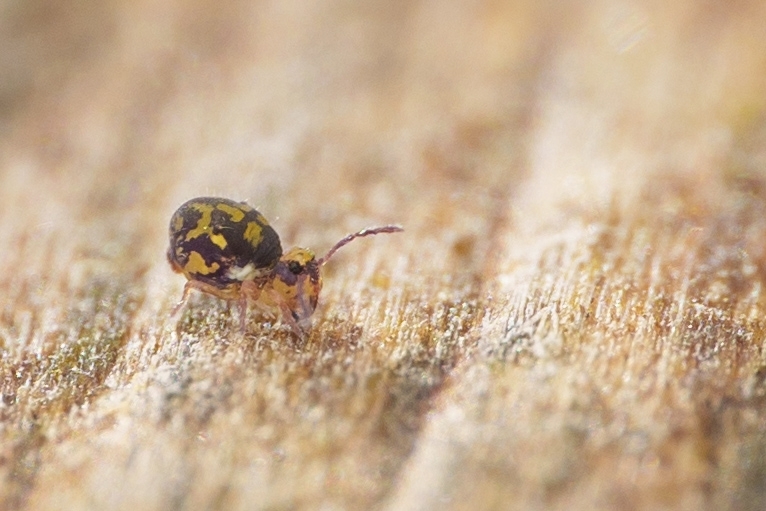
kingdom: Animalia
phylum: Arthropoda
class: Collembola
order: Symphypleona
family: Dicyrtomidae
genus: Dicyrtoma
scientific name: Dicyrtoma hageni
